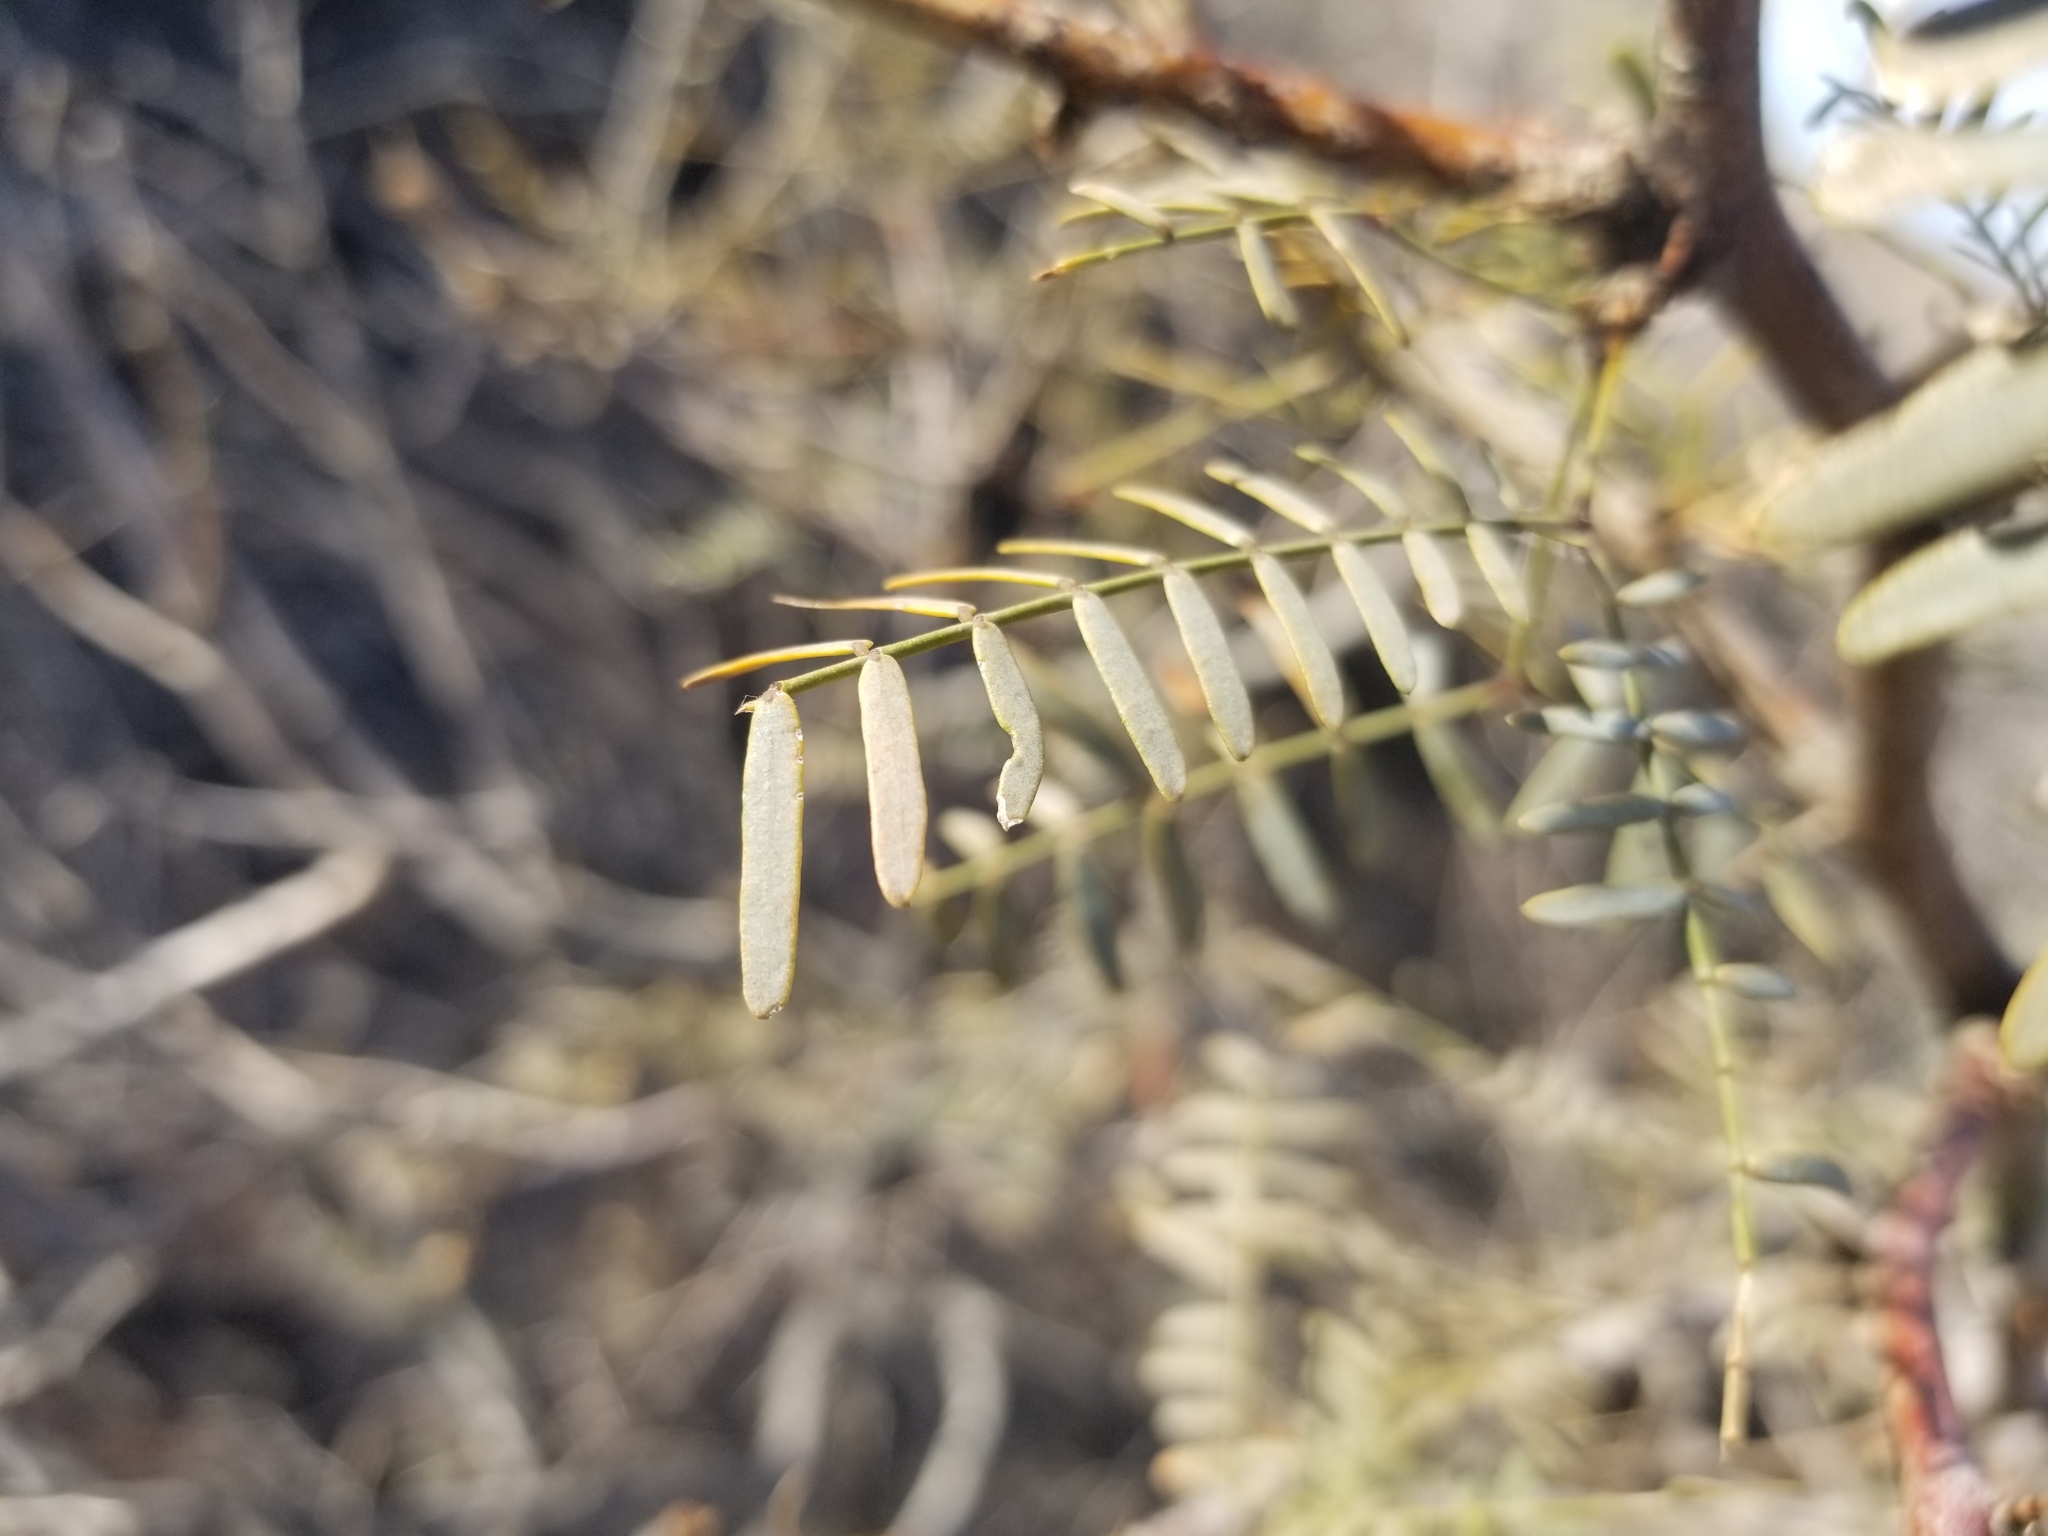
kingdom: Plantae
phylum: Tracheophyta
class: Magnoliopsida
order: Fabales
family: Fabaceae
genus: Prosopis
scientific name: Prosopis glandulosa
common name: Honey mesquite
